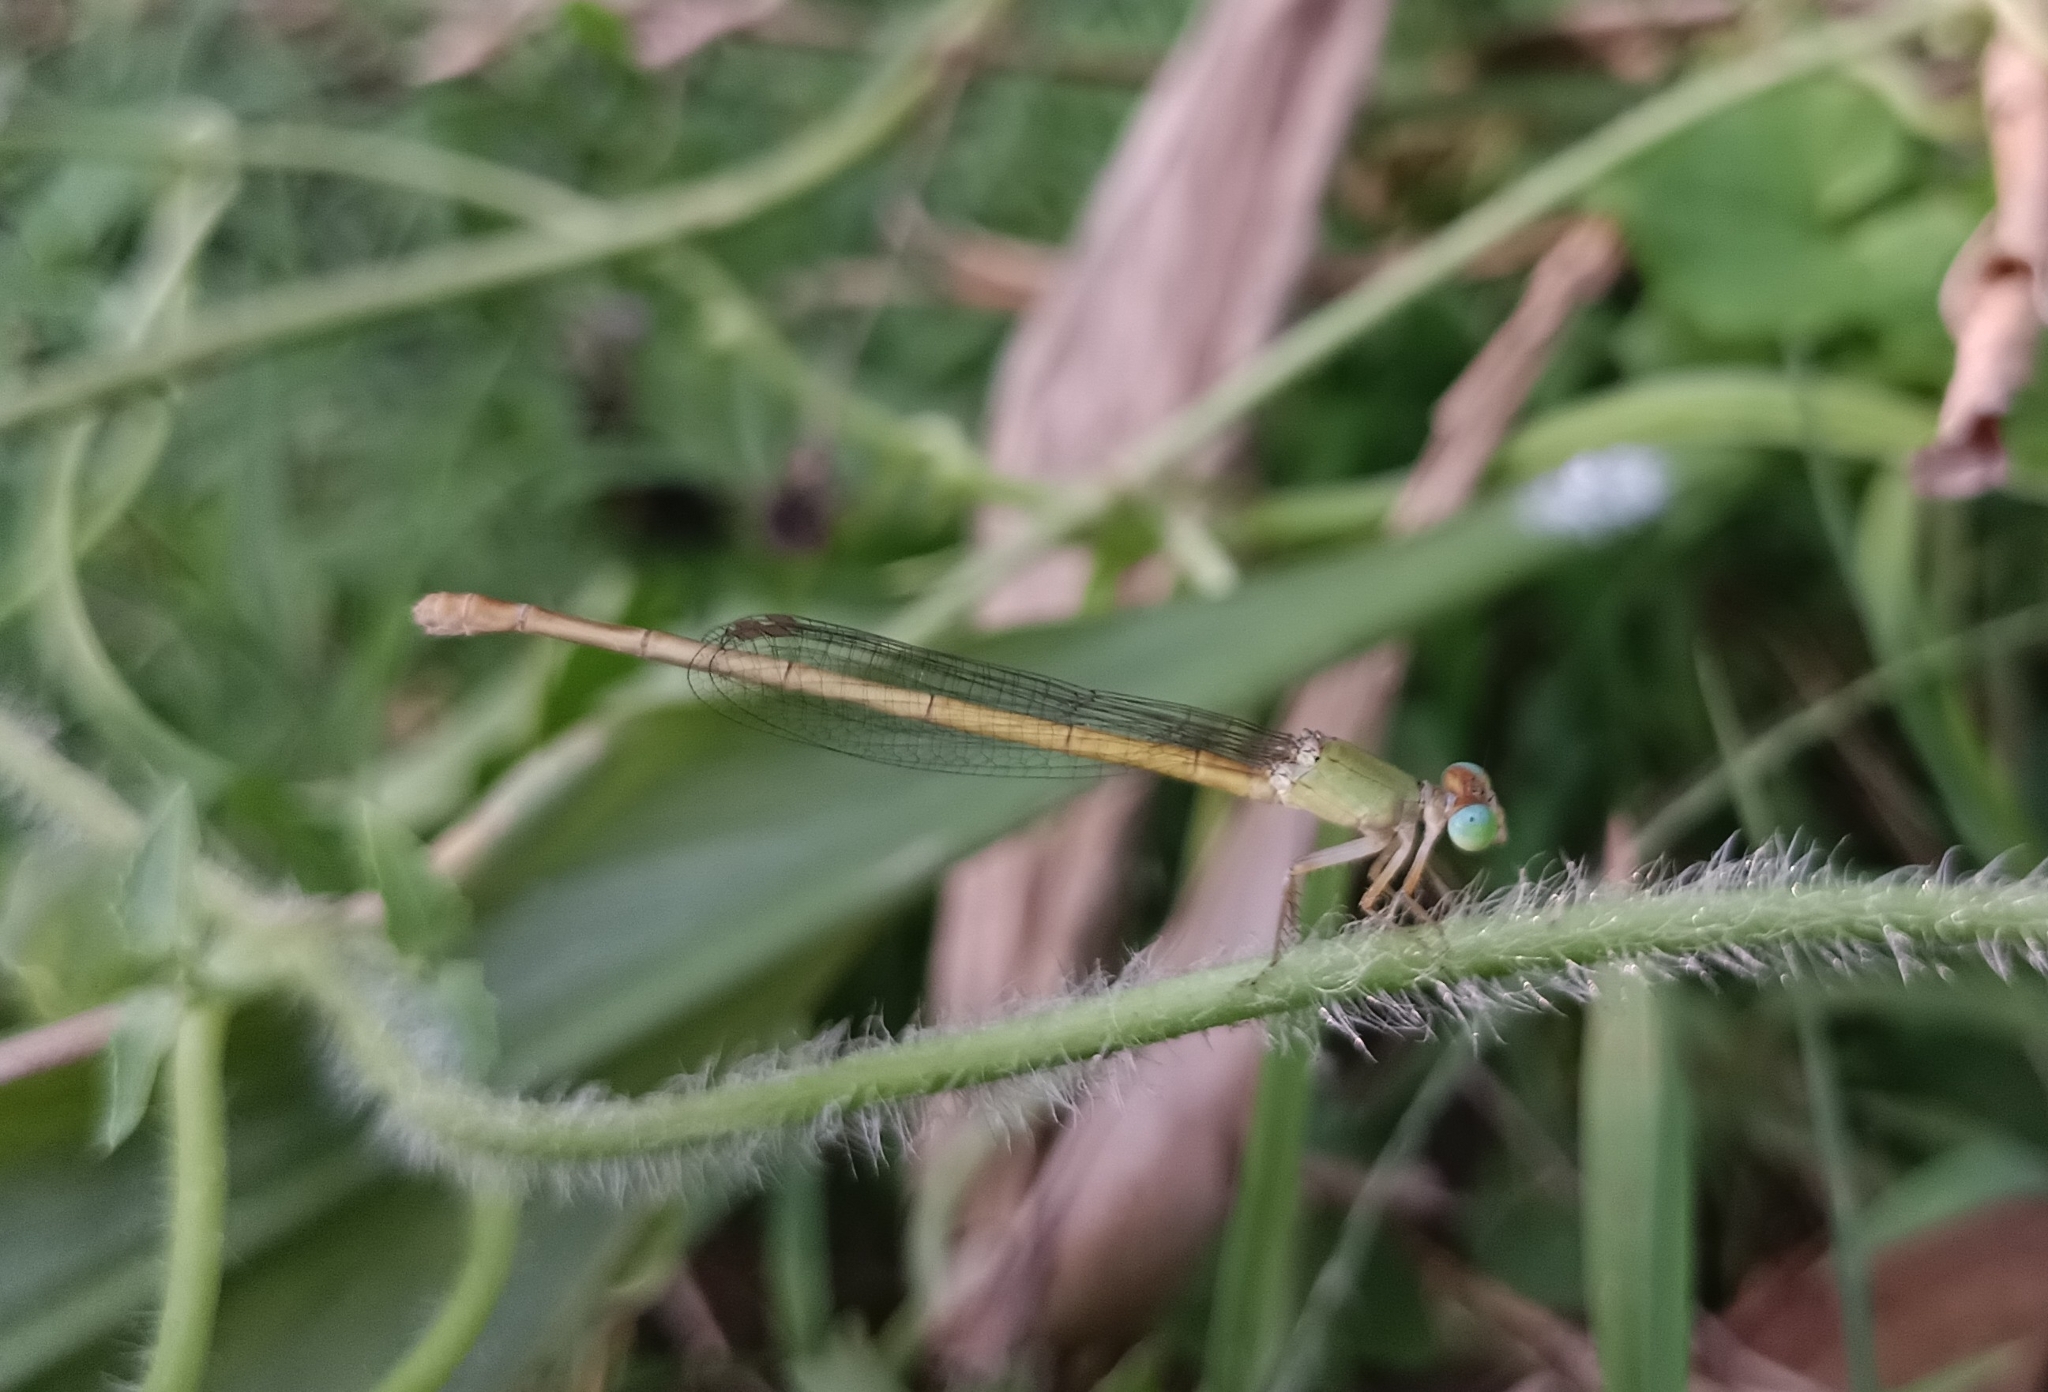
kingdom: Animalia
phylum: Arthropoda
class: Insecta
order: Odonata
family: Coenagrionidae
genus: Ceriagrion
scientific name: Ceriagrion coromandelianum
